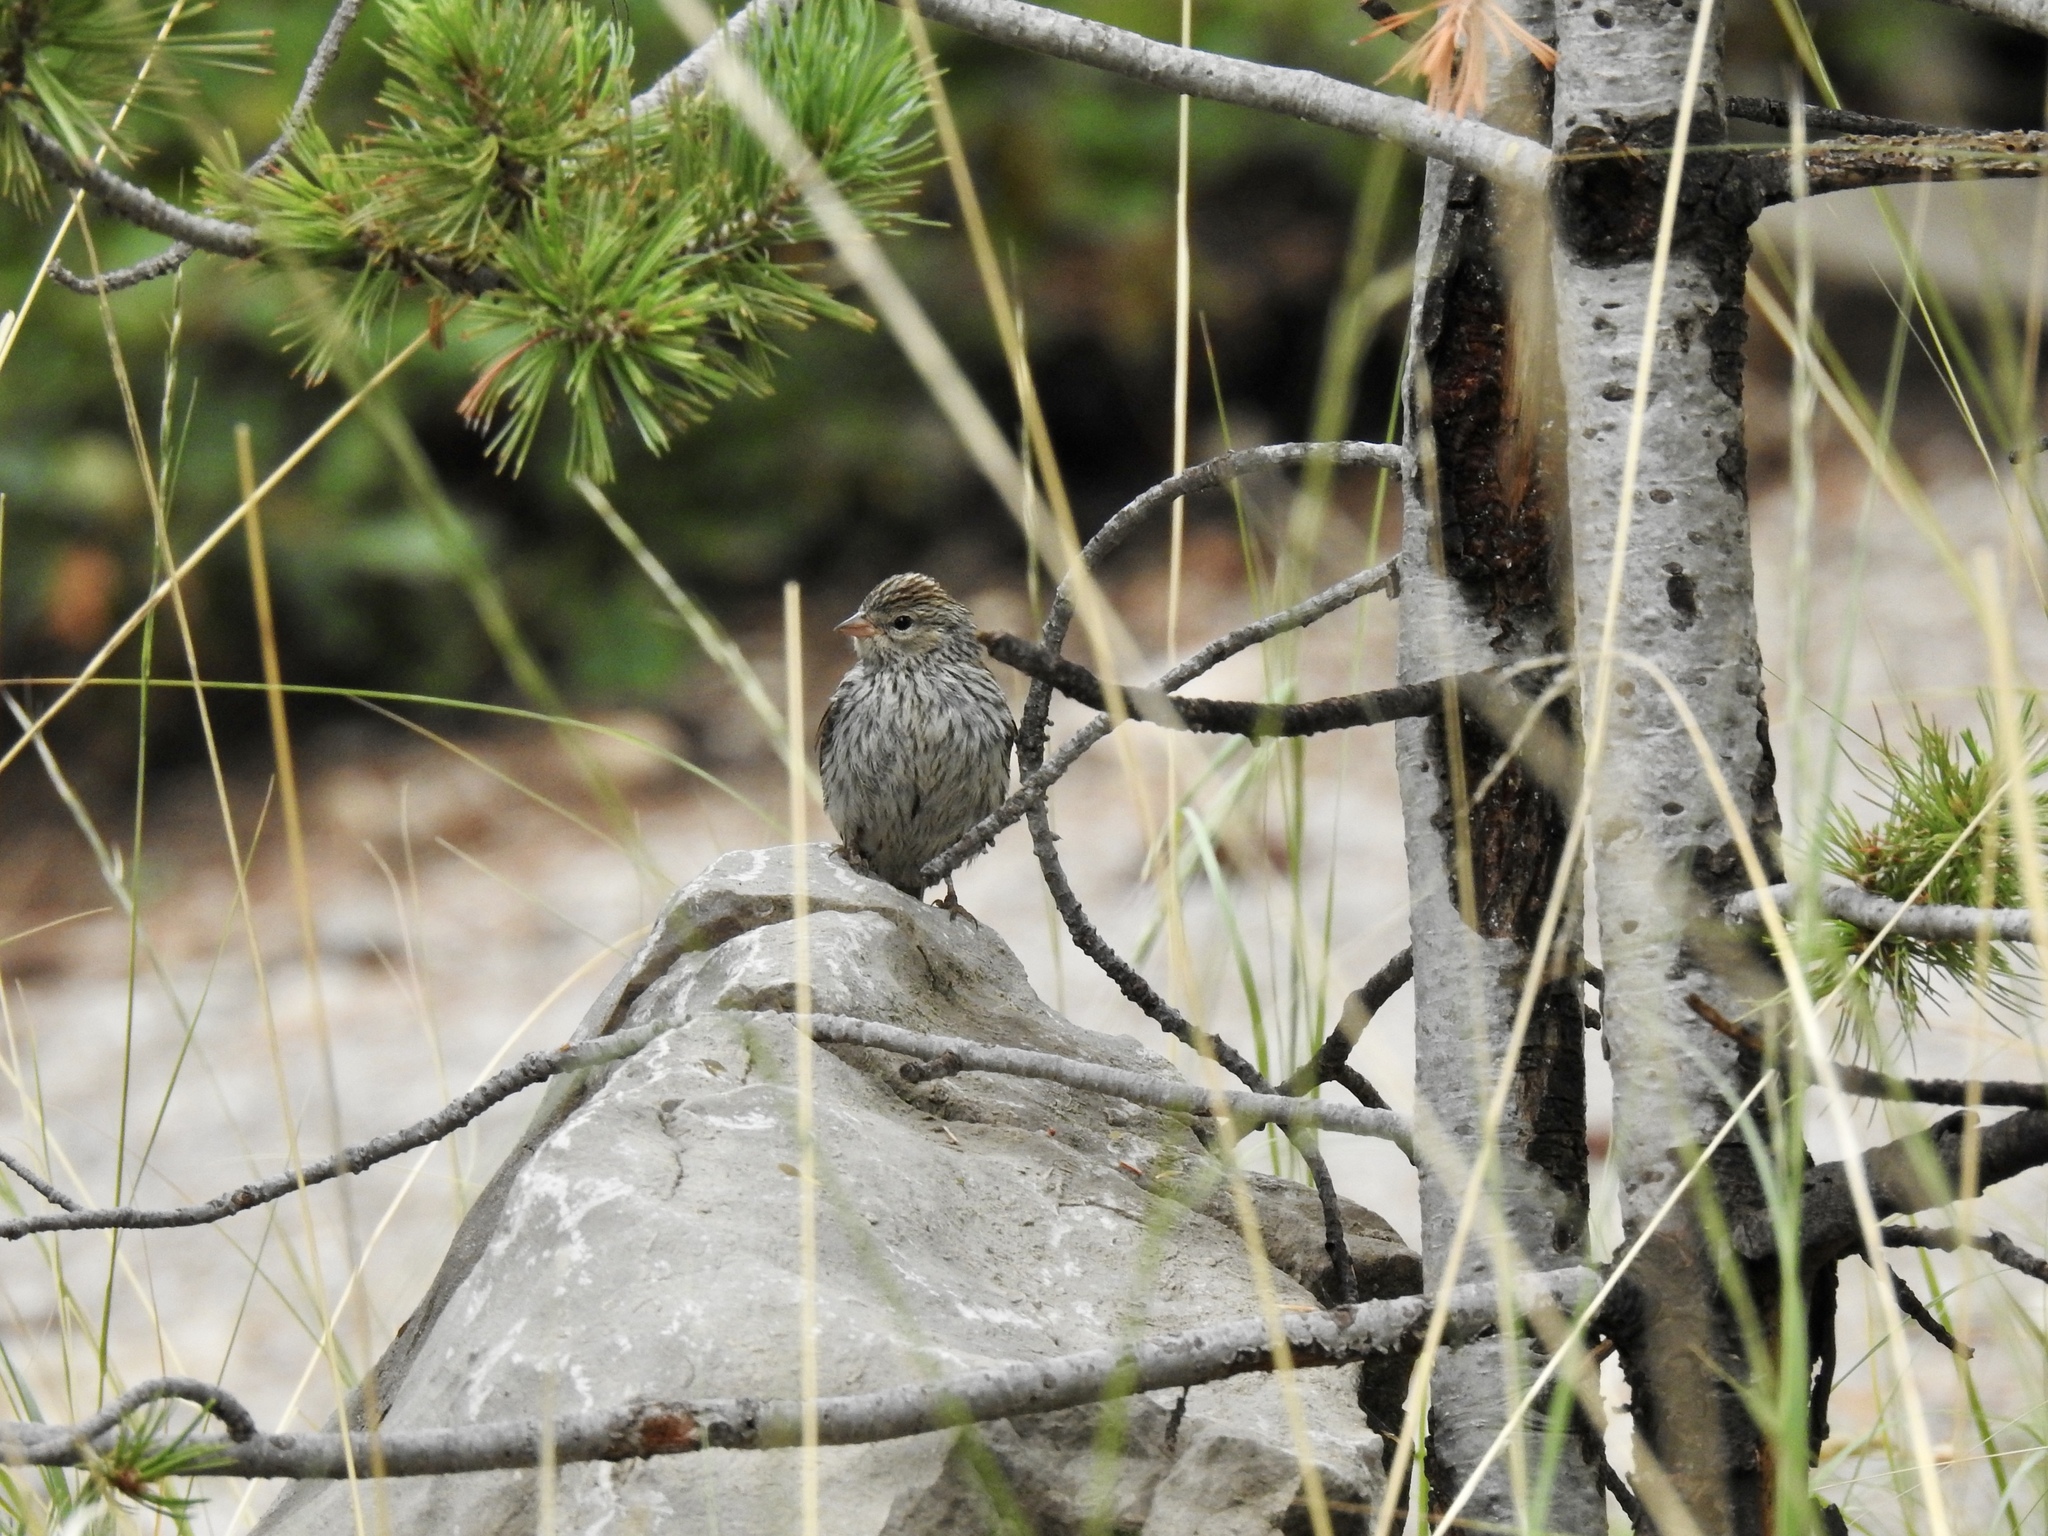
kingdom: Animalia
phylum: Chordata
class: Aves
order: Passeriformes
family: Passerellidae
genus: Spizella
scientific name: Spizella passerina
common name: Chipping sparrow
